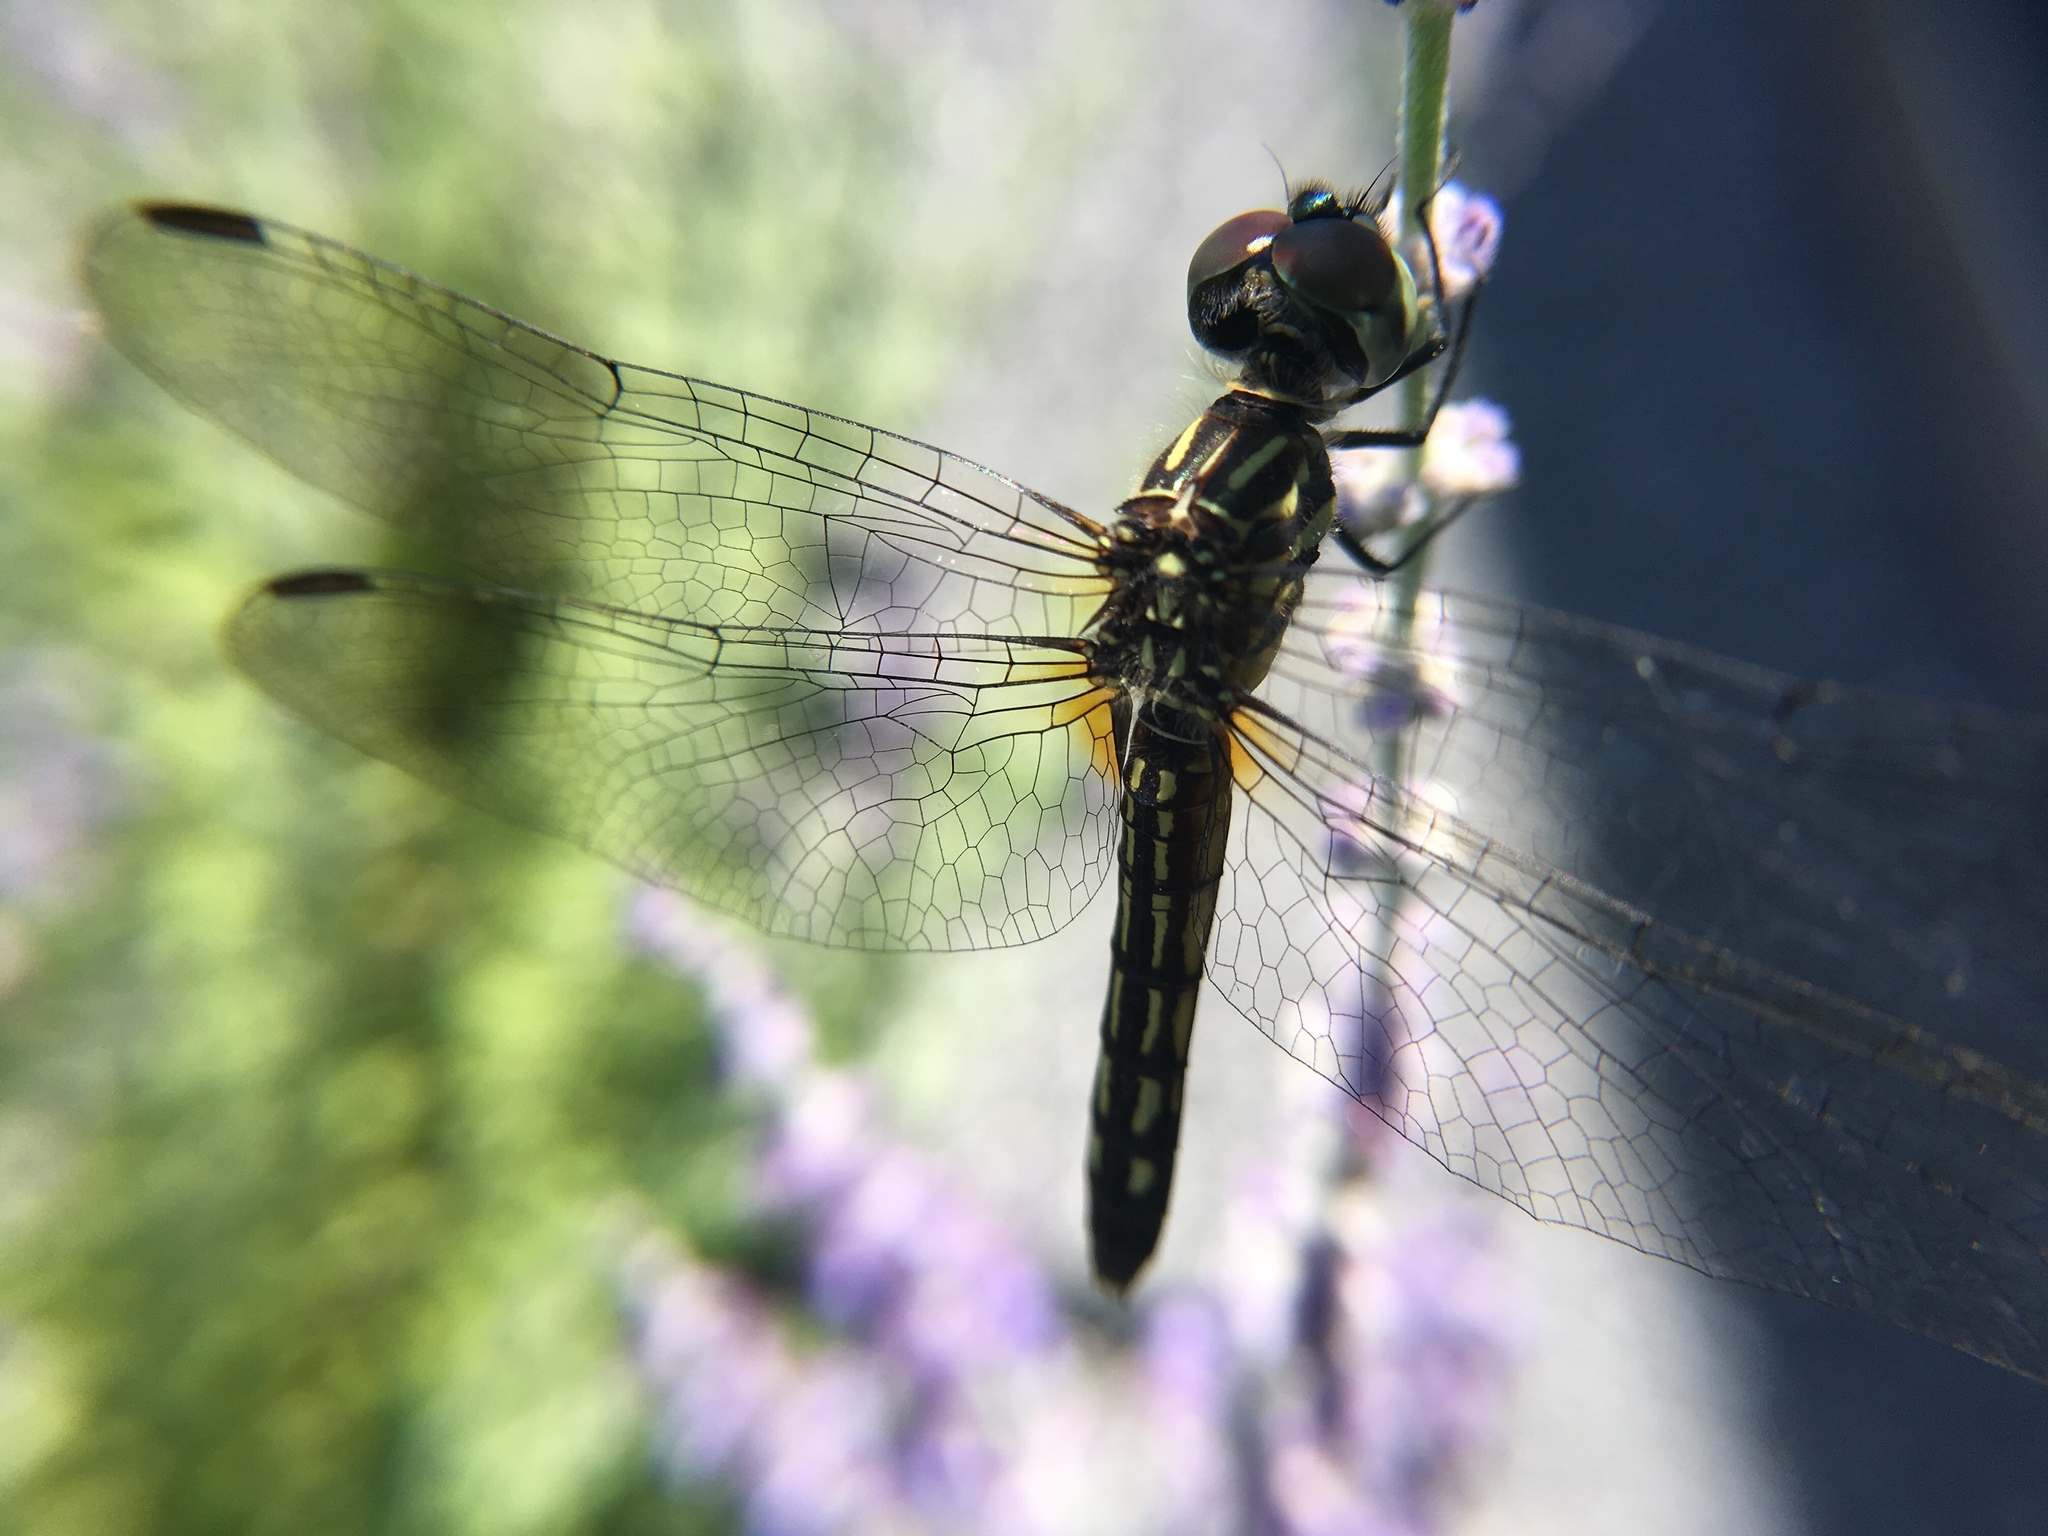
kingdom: Animalia
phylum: Arthropoda
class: Insecta
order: Odonata
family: Libellulidae
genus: Pachydiplax
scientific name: Pachydiplax longipennis
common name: Blue dasher
